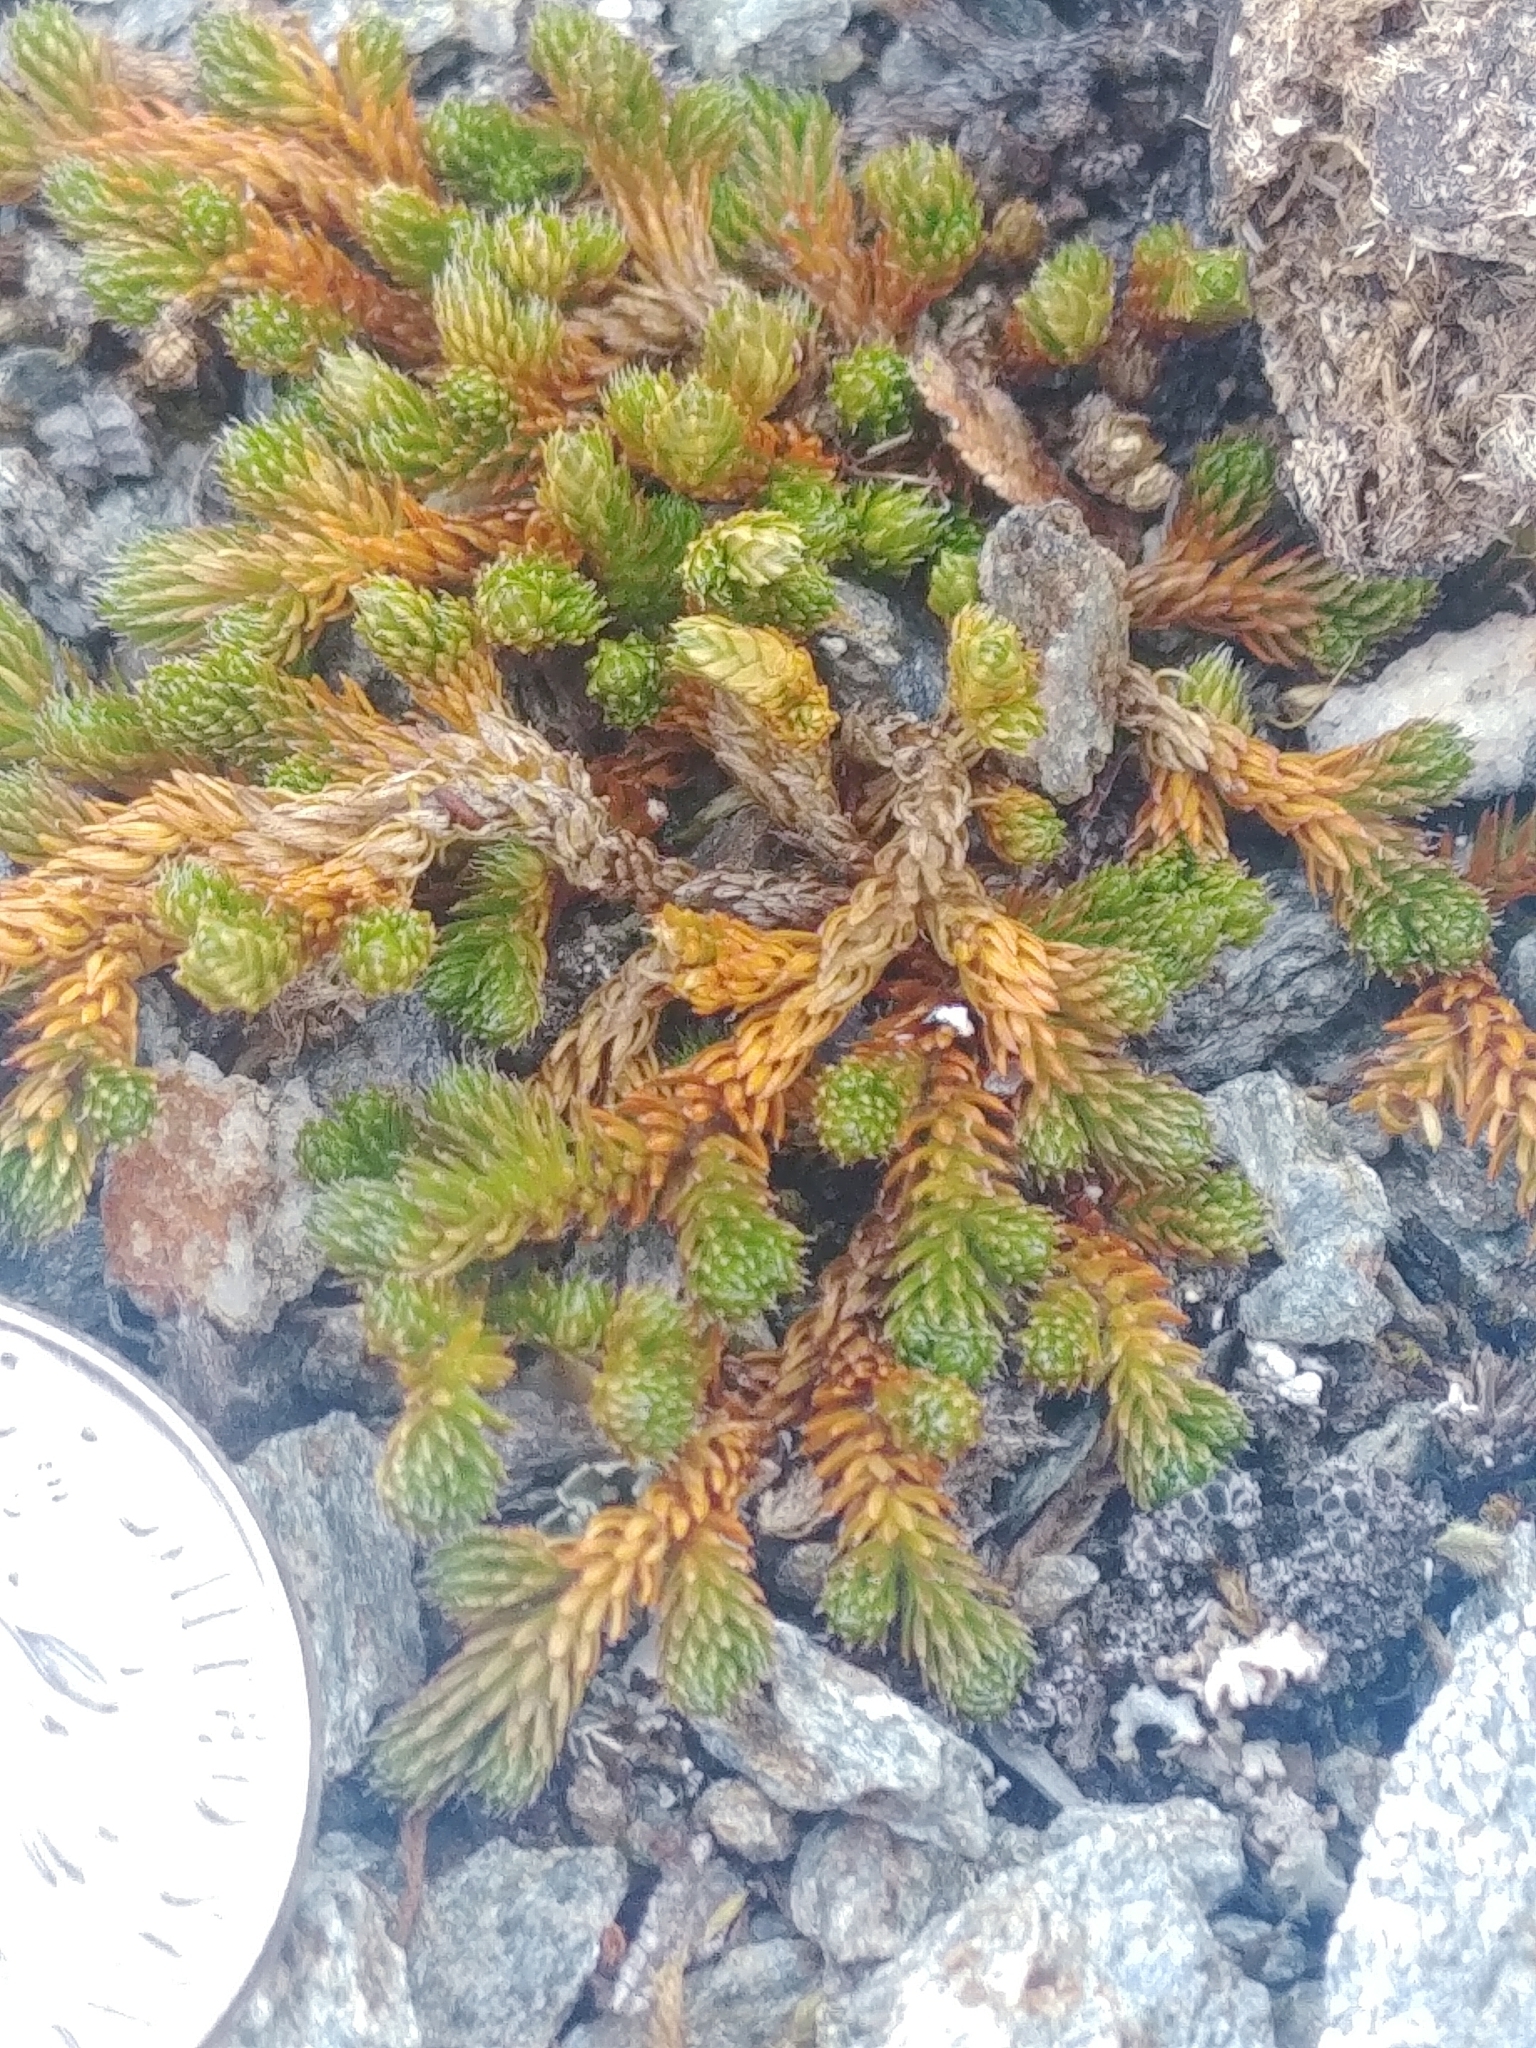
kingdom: Plantae
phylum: Tracheophyta
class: Lycopodiopsida
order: Selaginellales
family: Selaginellaceae
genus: Selaginella
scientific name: Selaginella sibirica
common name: Siberian spikemoss
